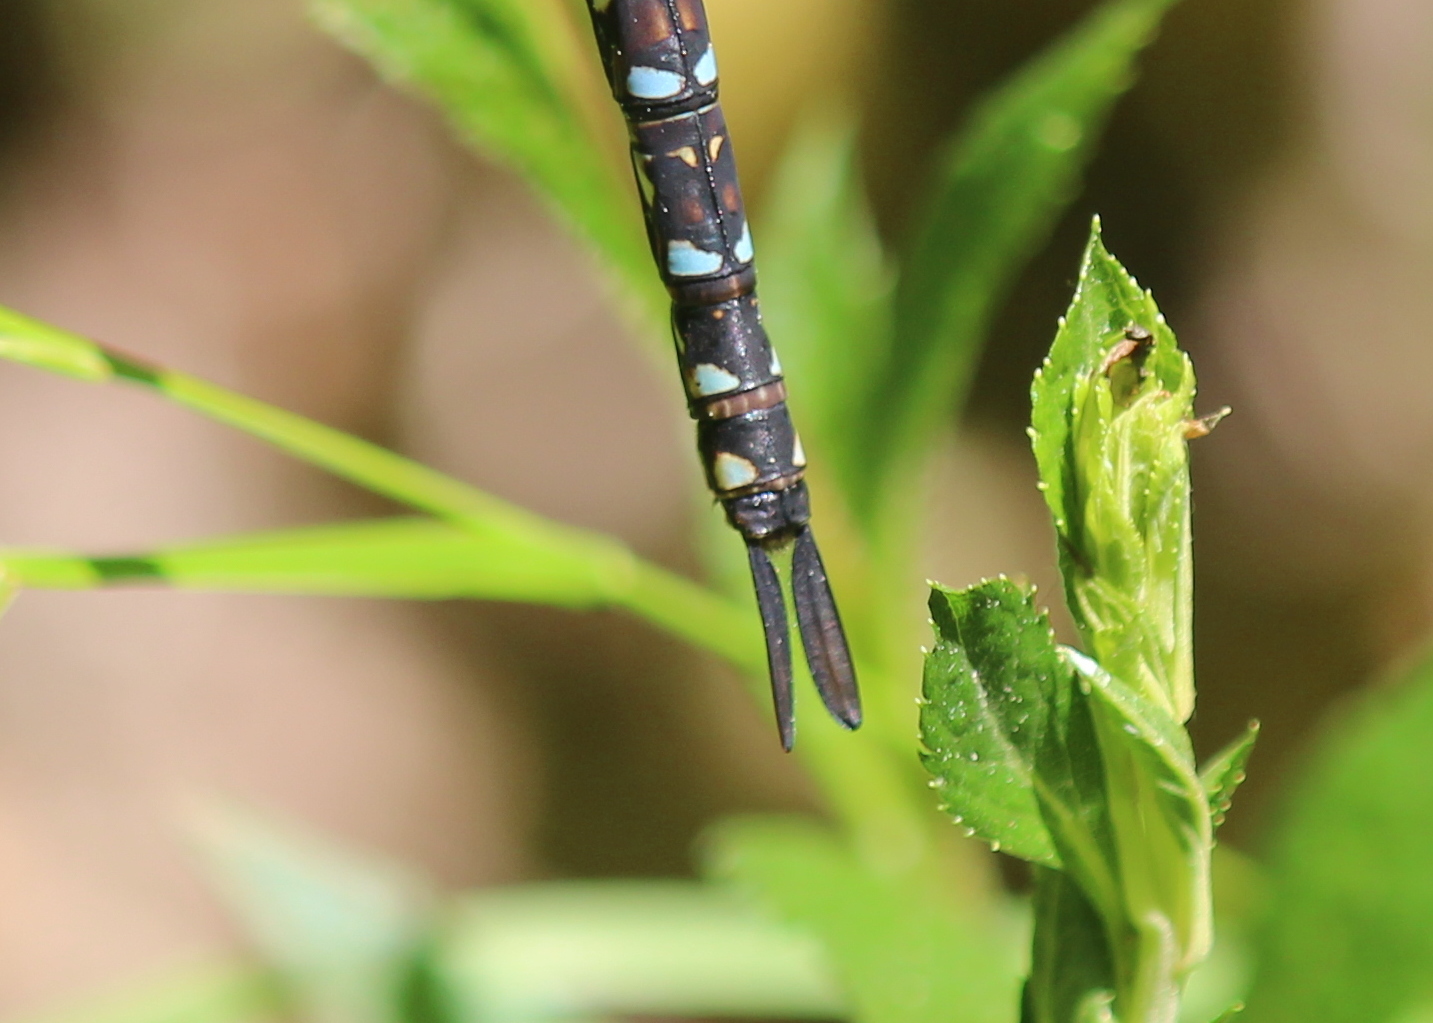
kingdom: Animalia
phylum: Arthropoda
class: Insecta
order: Odonata
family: Aeshnidae
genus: Rhionaeschna
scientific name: Rhionaeschna mutata
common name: Spatterdock darner
